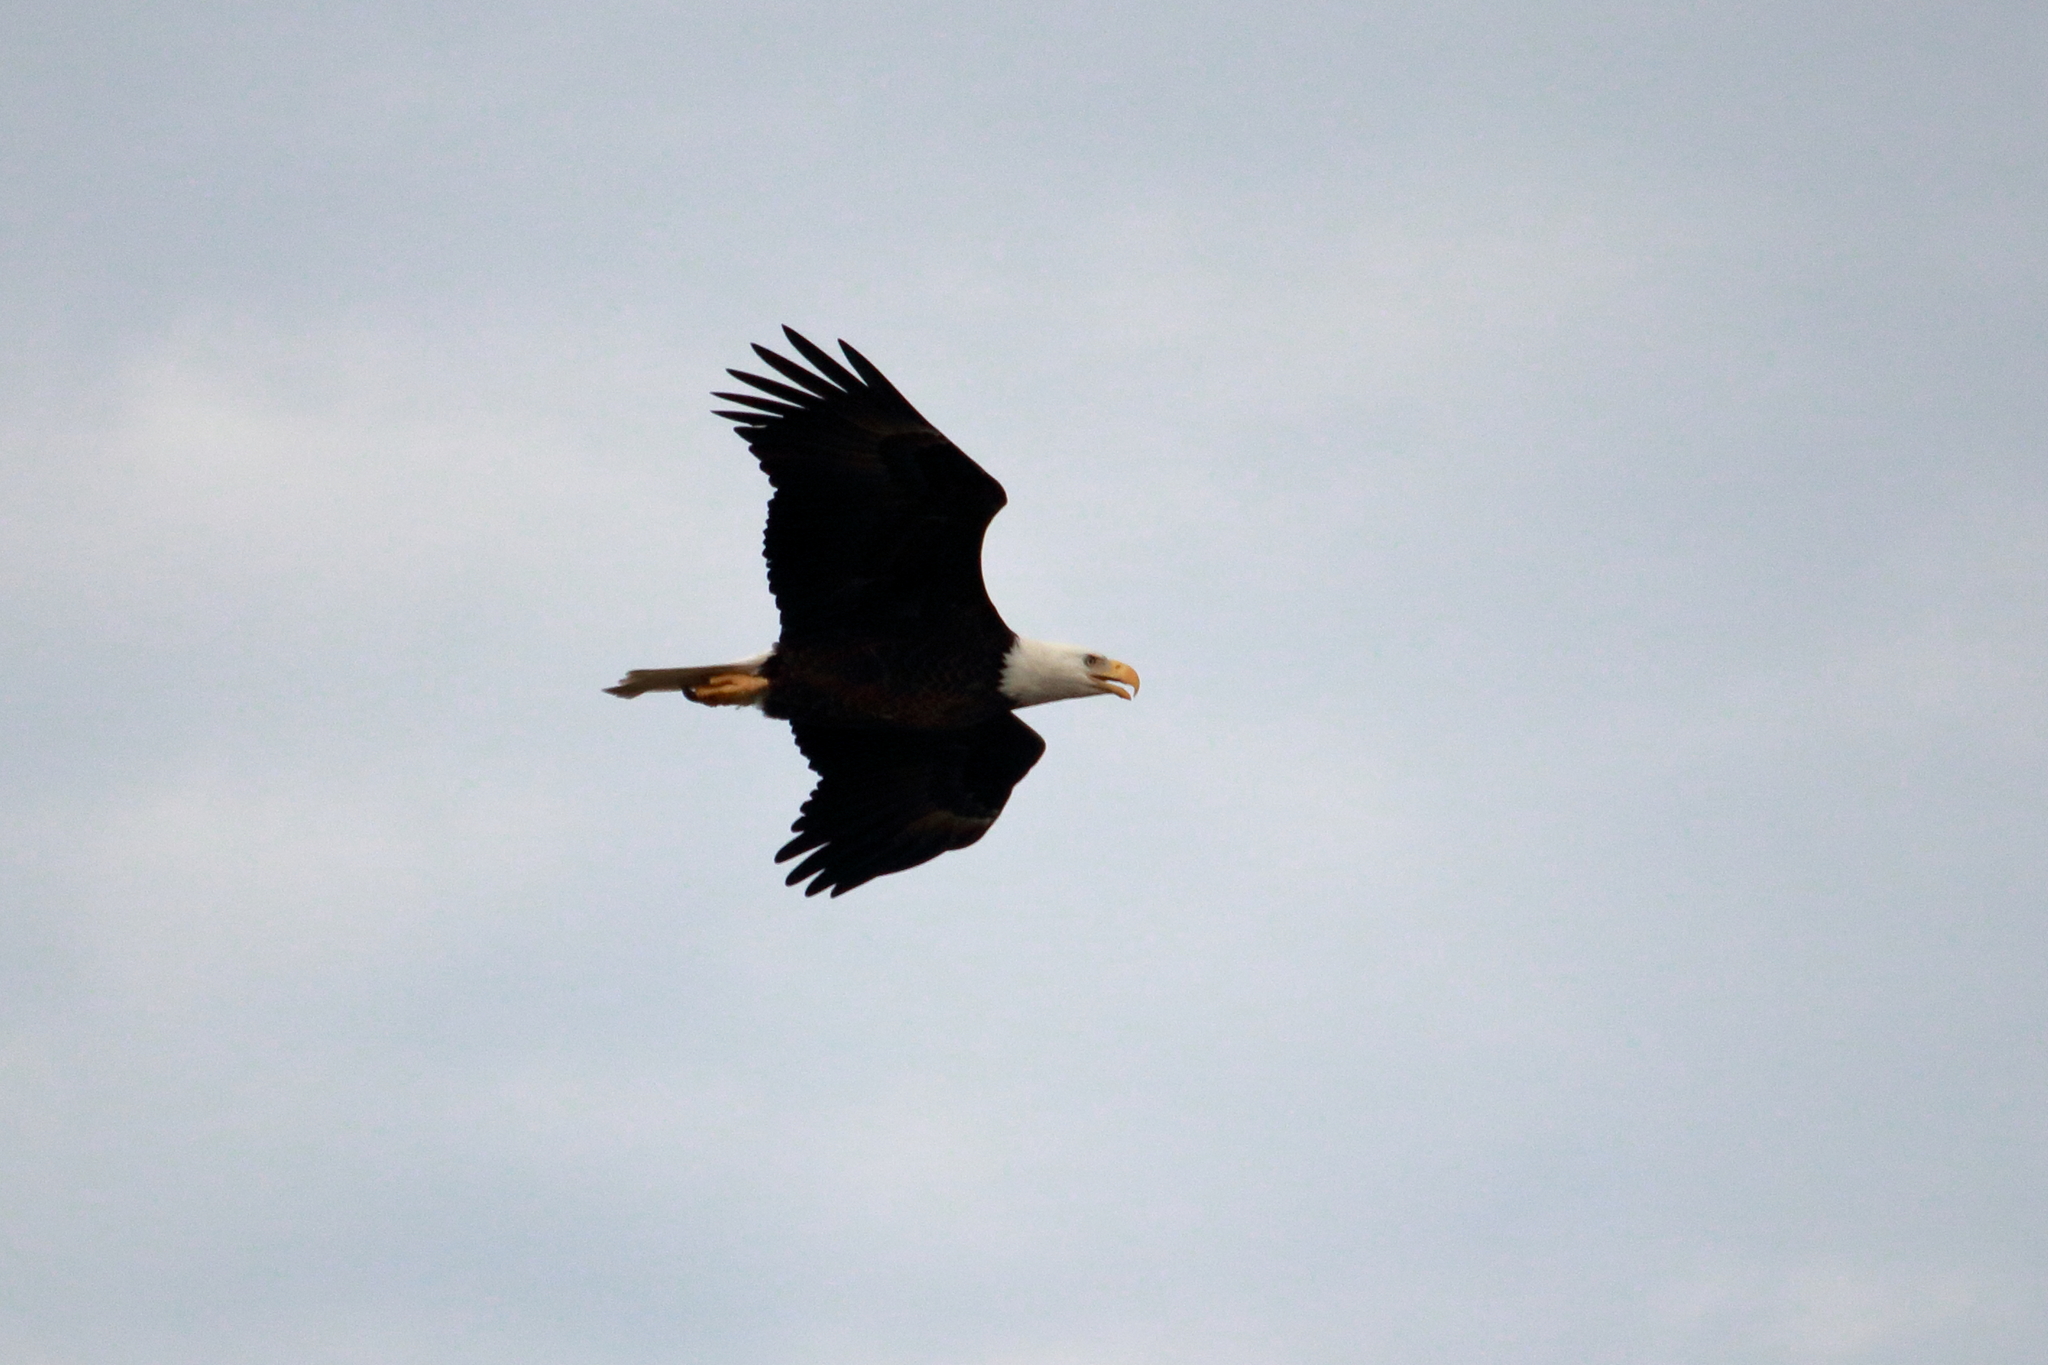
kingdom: Animalia
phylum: Chordata
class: Aves
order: Accipitriformes
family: Accipitridae
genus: Haliaeetus
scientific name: Haliaeetus leucocephalus
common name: Bald eagle
